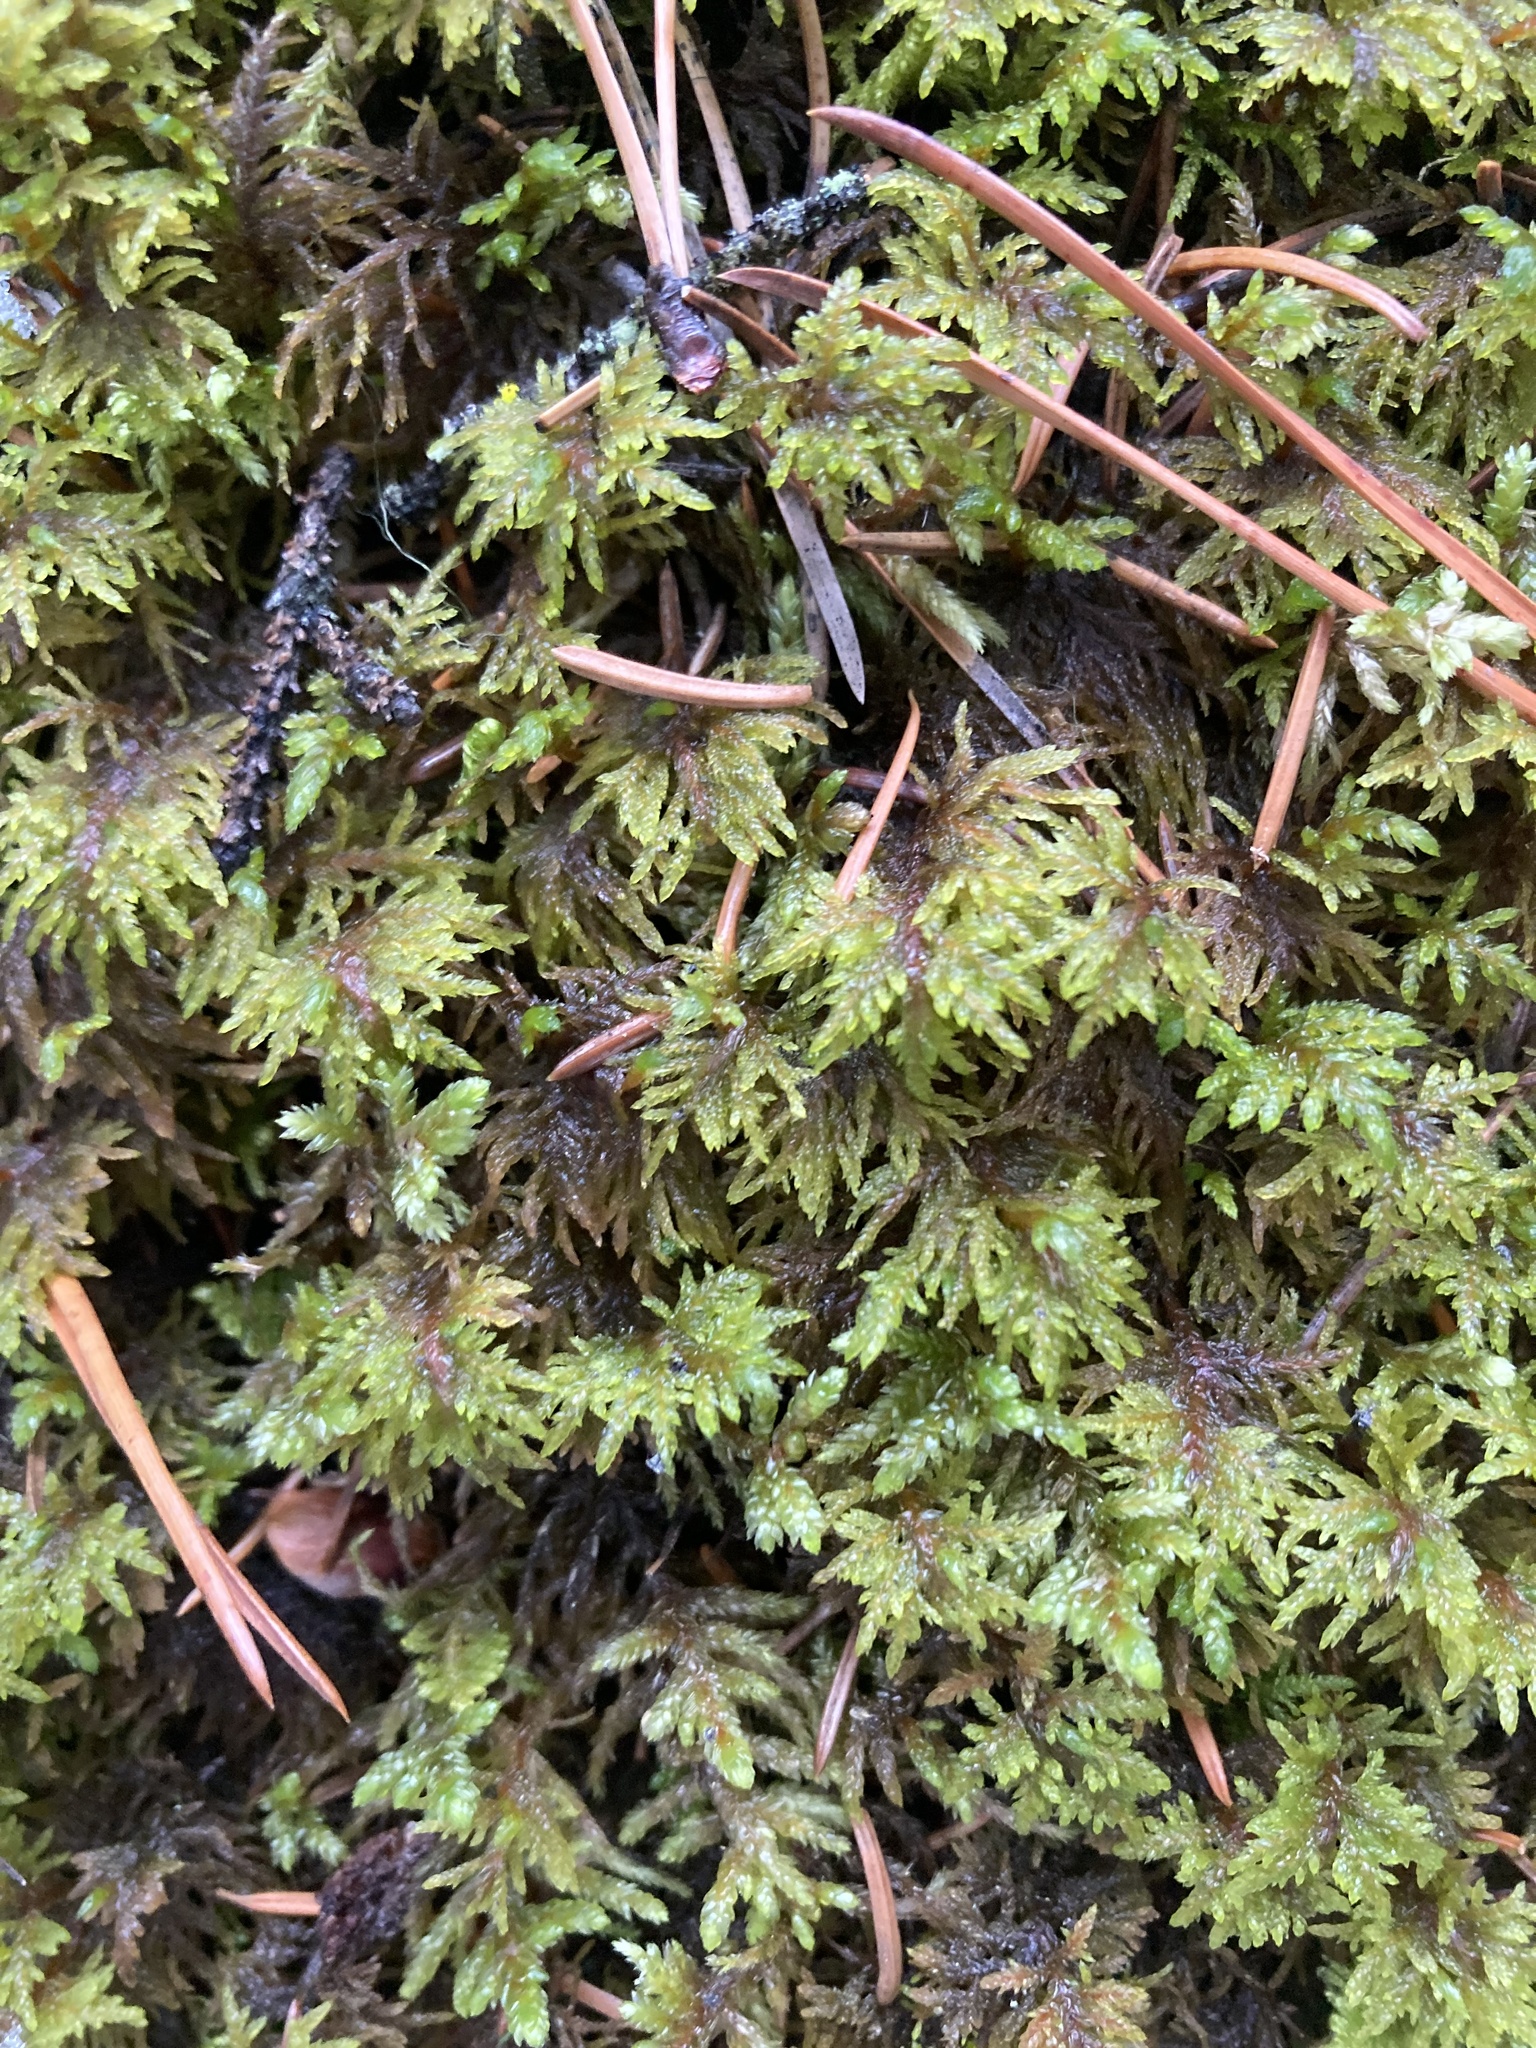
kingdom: Plantae
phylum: Bryophyta
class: Bryopsida
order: Hypnales
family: Hylocomiaceae
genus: Hylocomium
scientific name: Hylocomium splendens
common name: Stairstep moss
